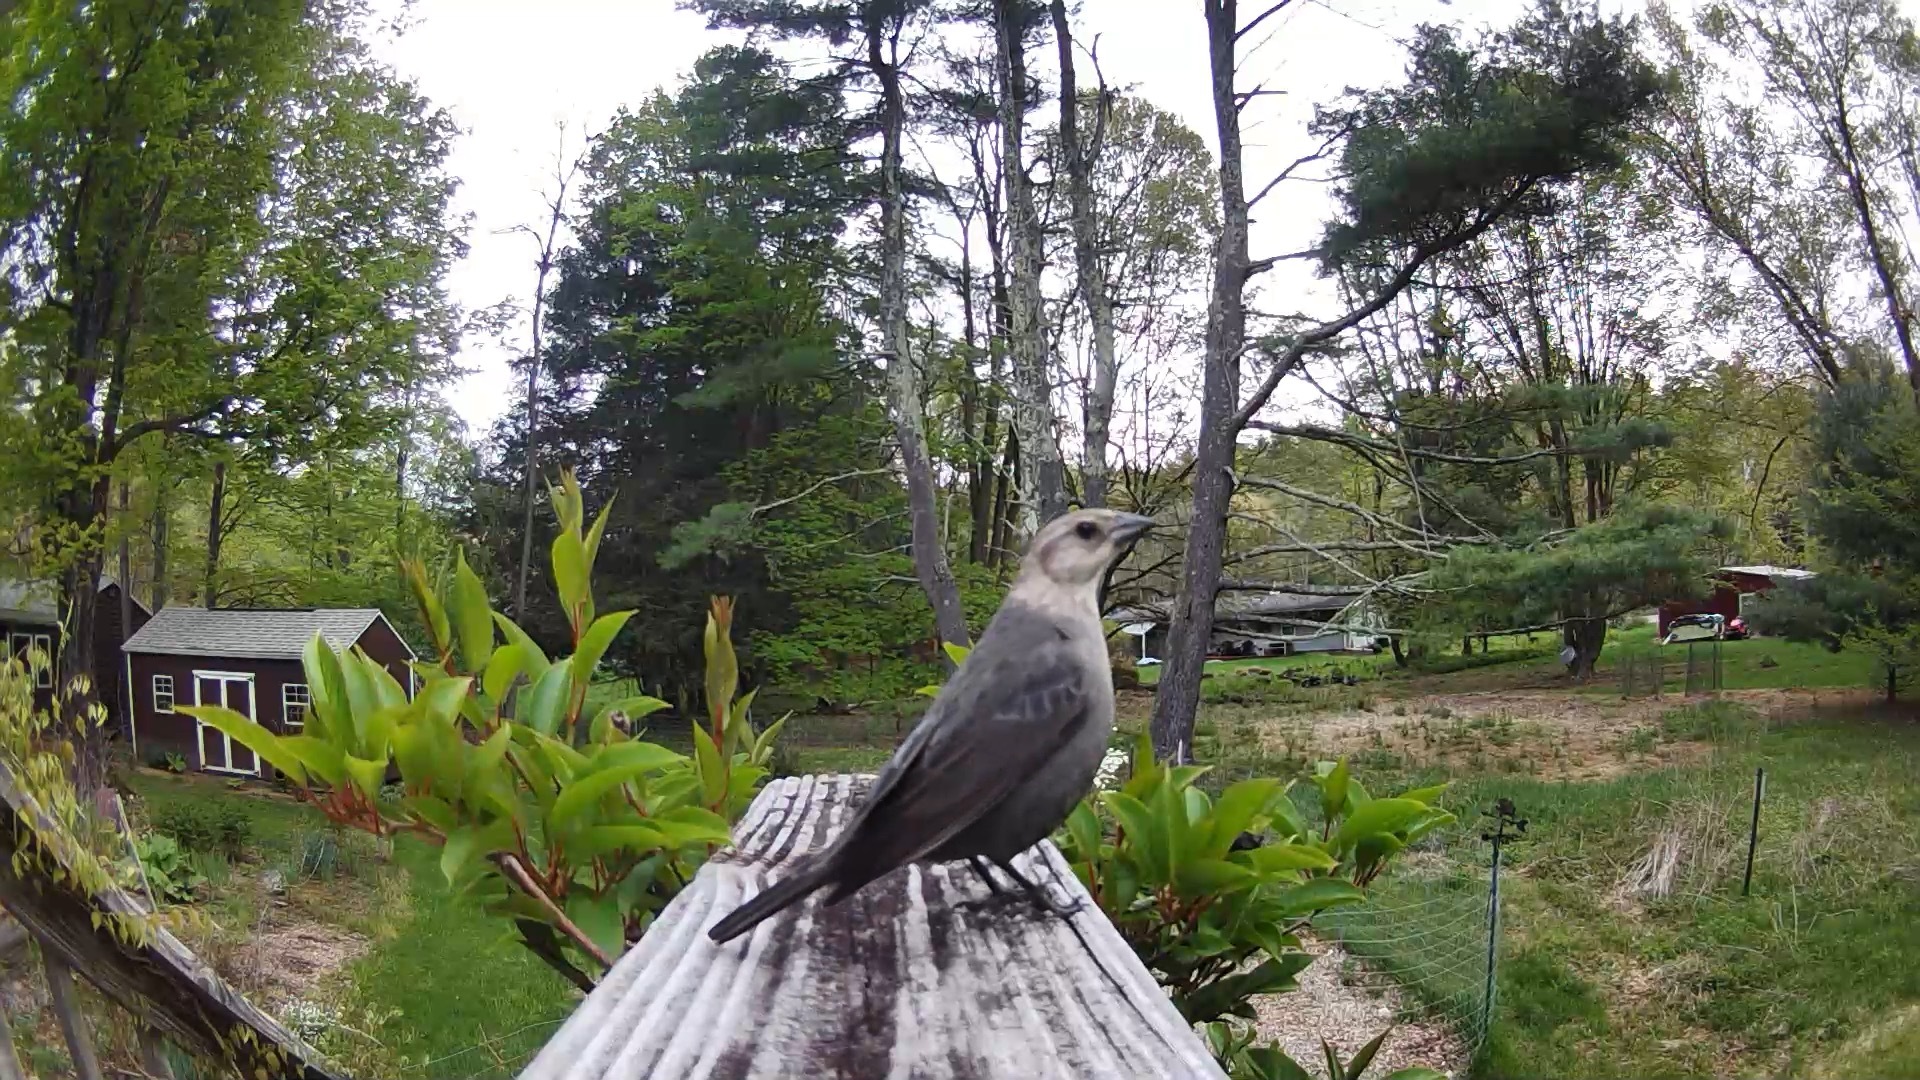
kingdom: Animalia
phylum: Chordata
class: Aves
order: Passeriformes
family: Icteridae
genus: Molothrus
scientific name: Molothrus ater
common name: Brown-headed cowbird
